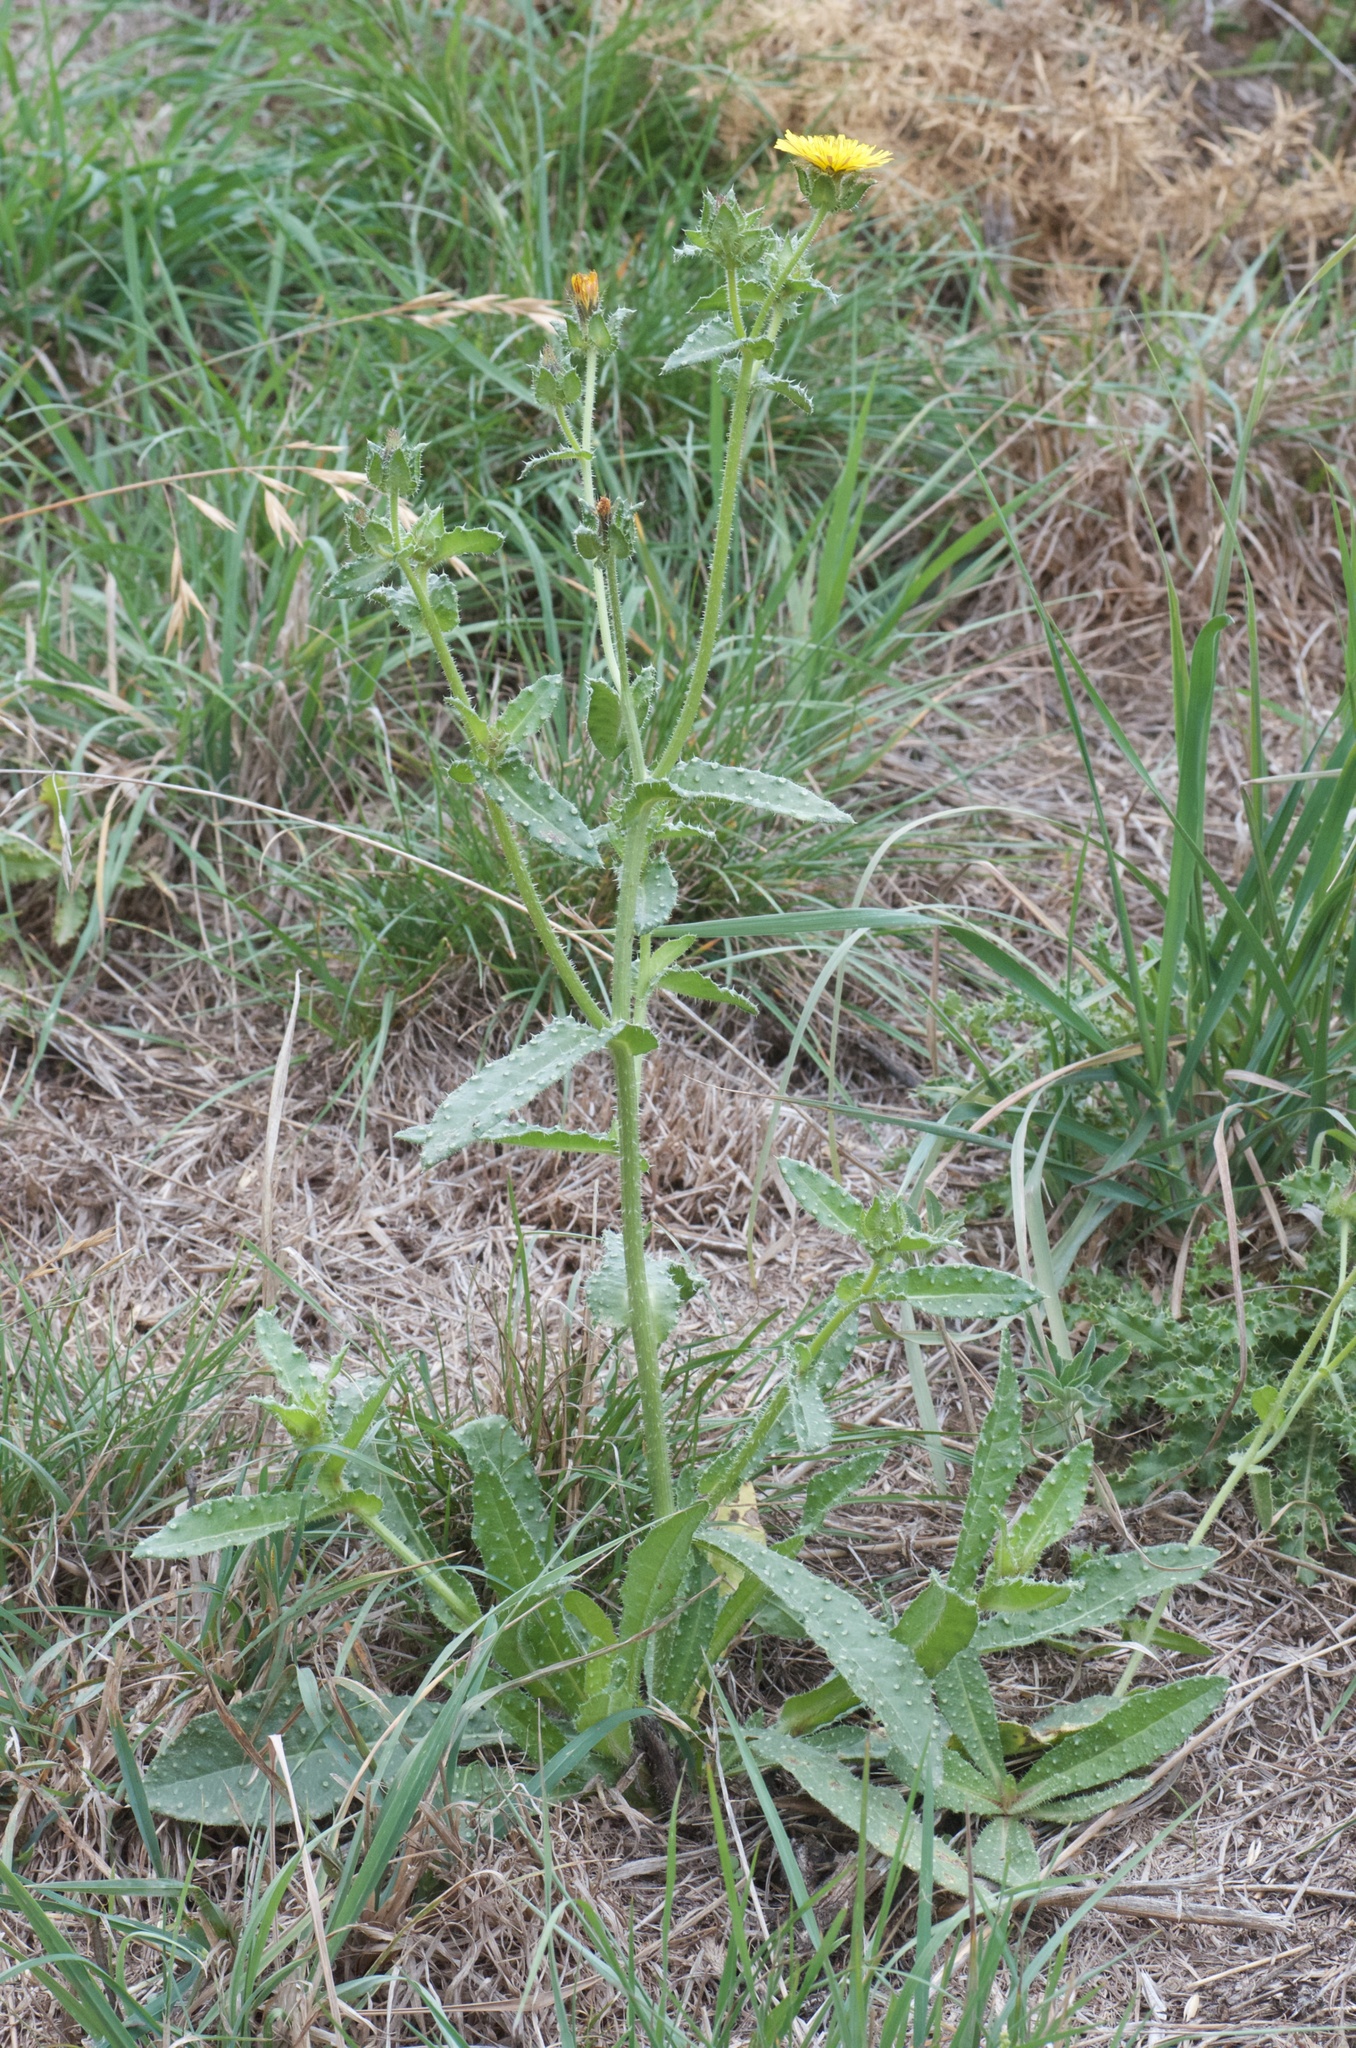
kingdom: Plantae
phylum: Tracheophyta
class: Magnoliopsida
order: Asterales
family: Asteraceae
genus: Helminthotheca
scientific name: Helminthotheca echioides
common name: Ox-tongue
